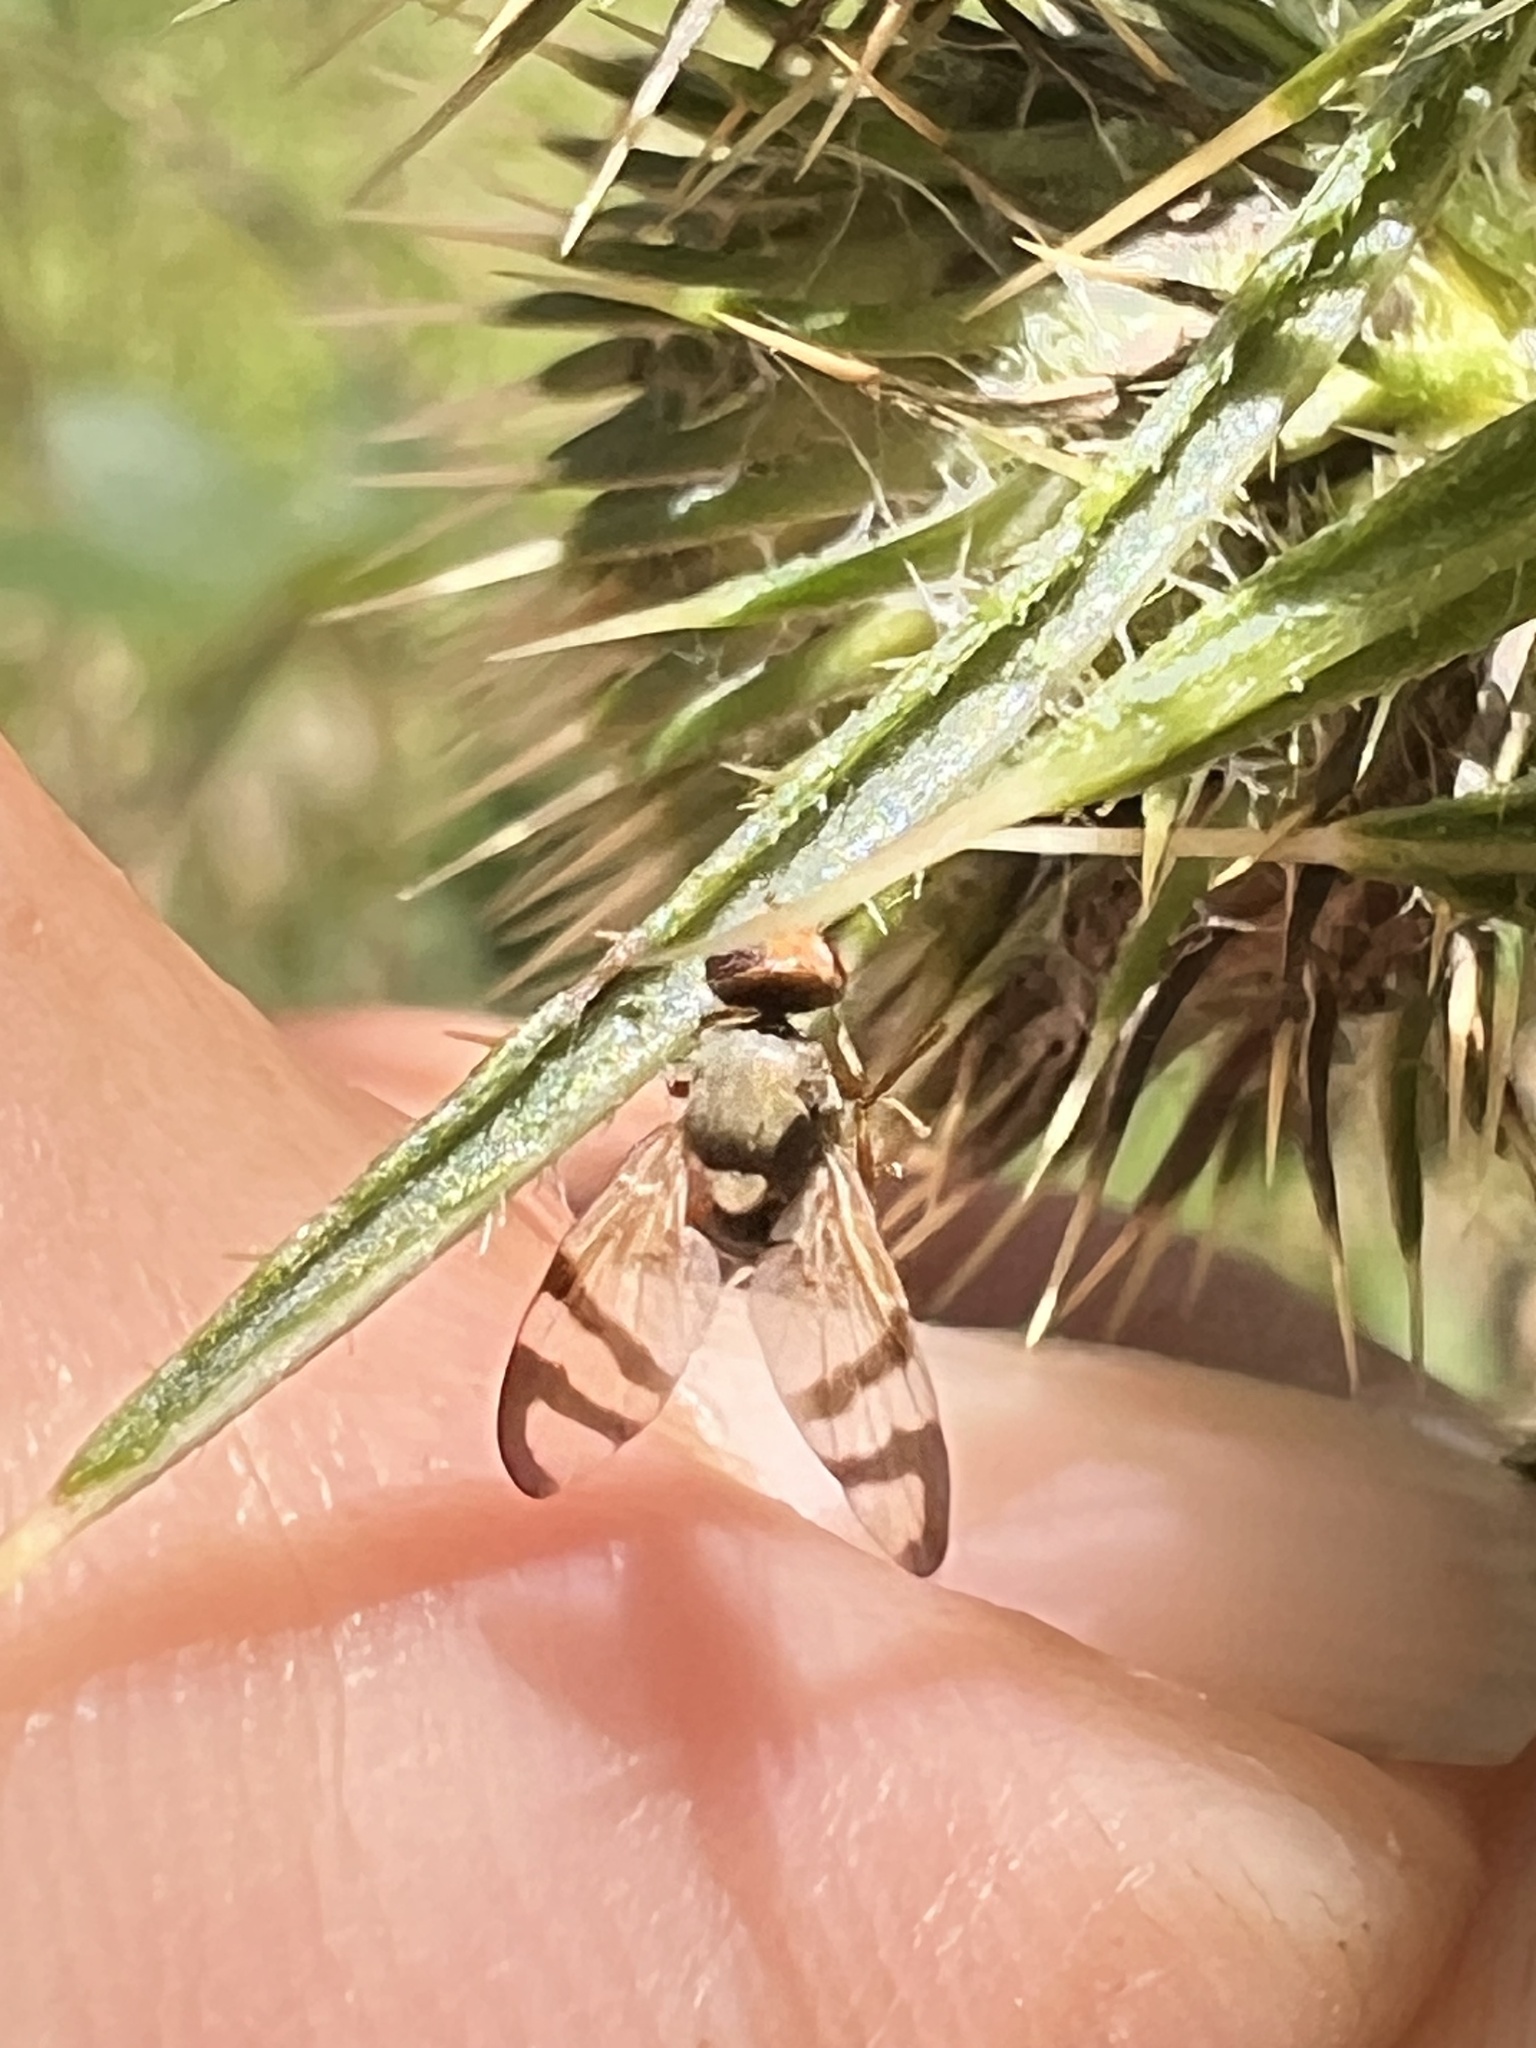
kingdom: Animalia
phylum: Arthropoda
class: Insecta
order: Diptera
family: Tephritidae
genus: Urophora
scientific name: Urophora stylata
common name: Fruit fly
